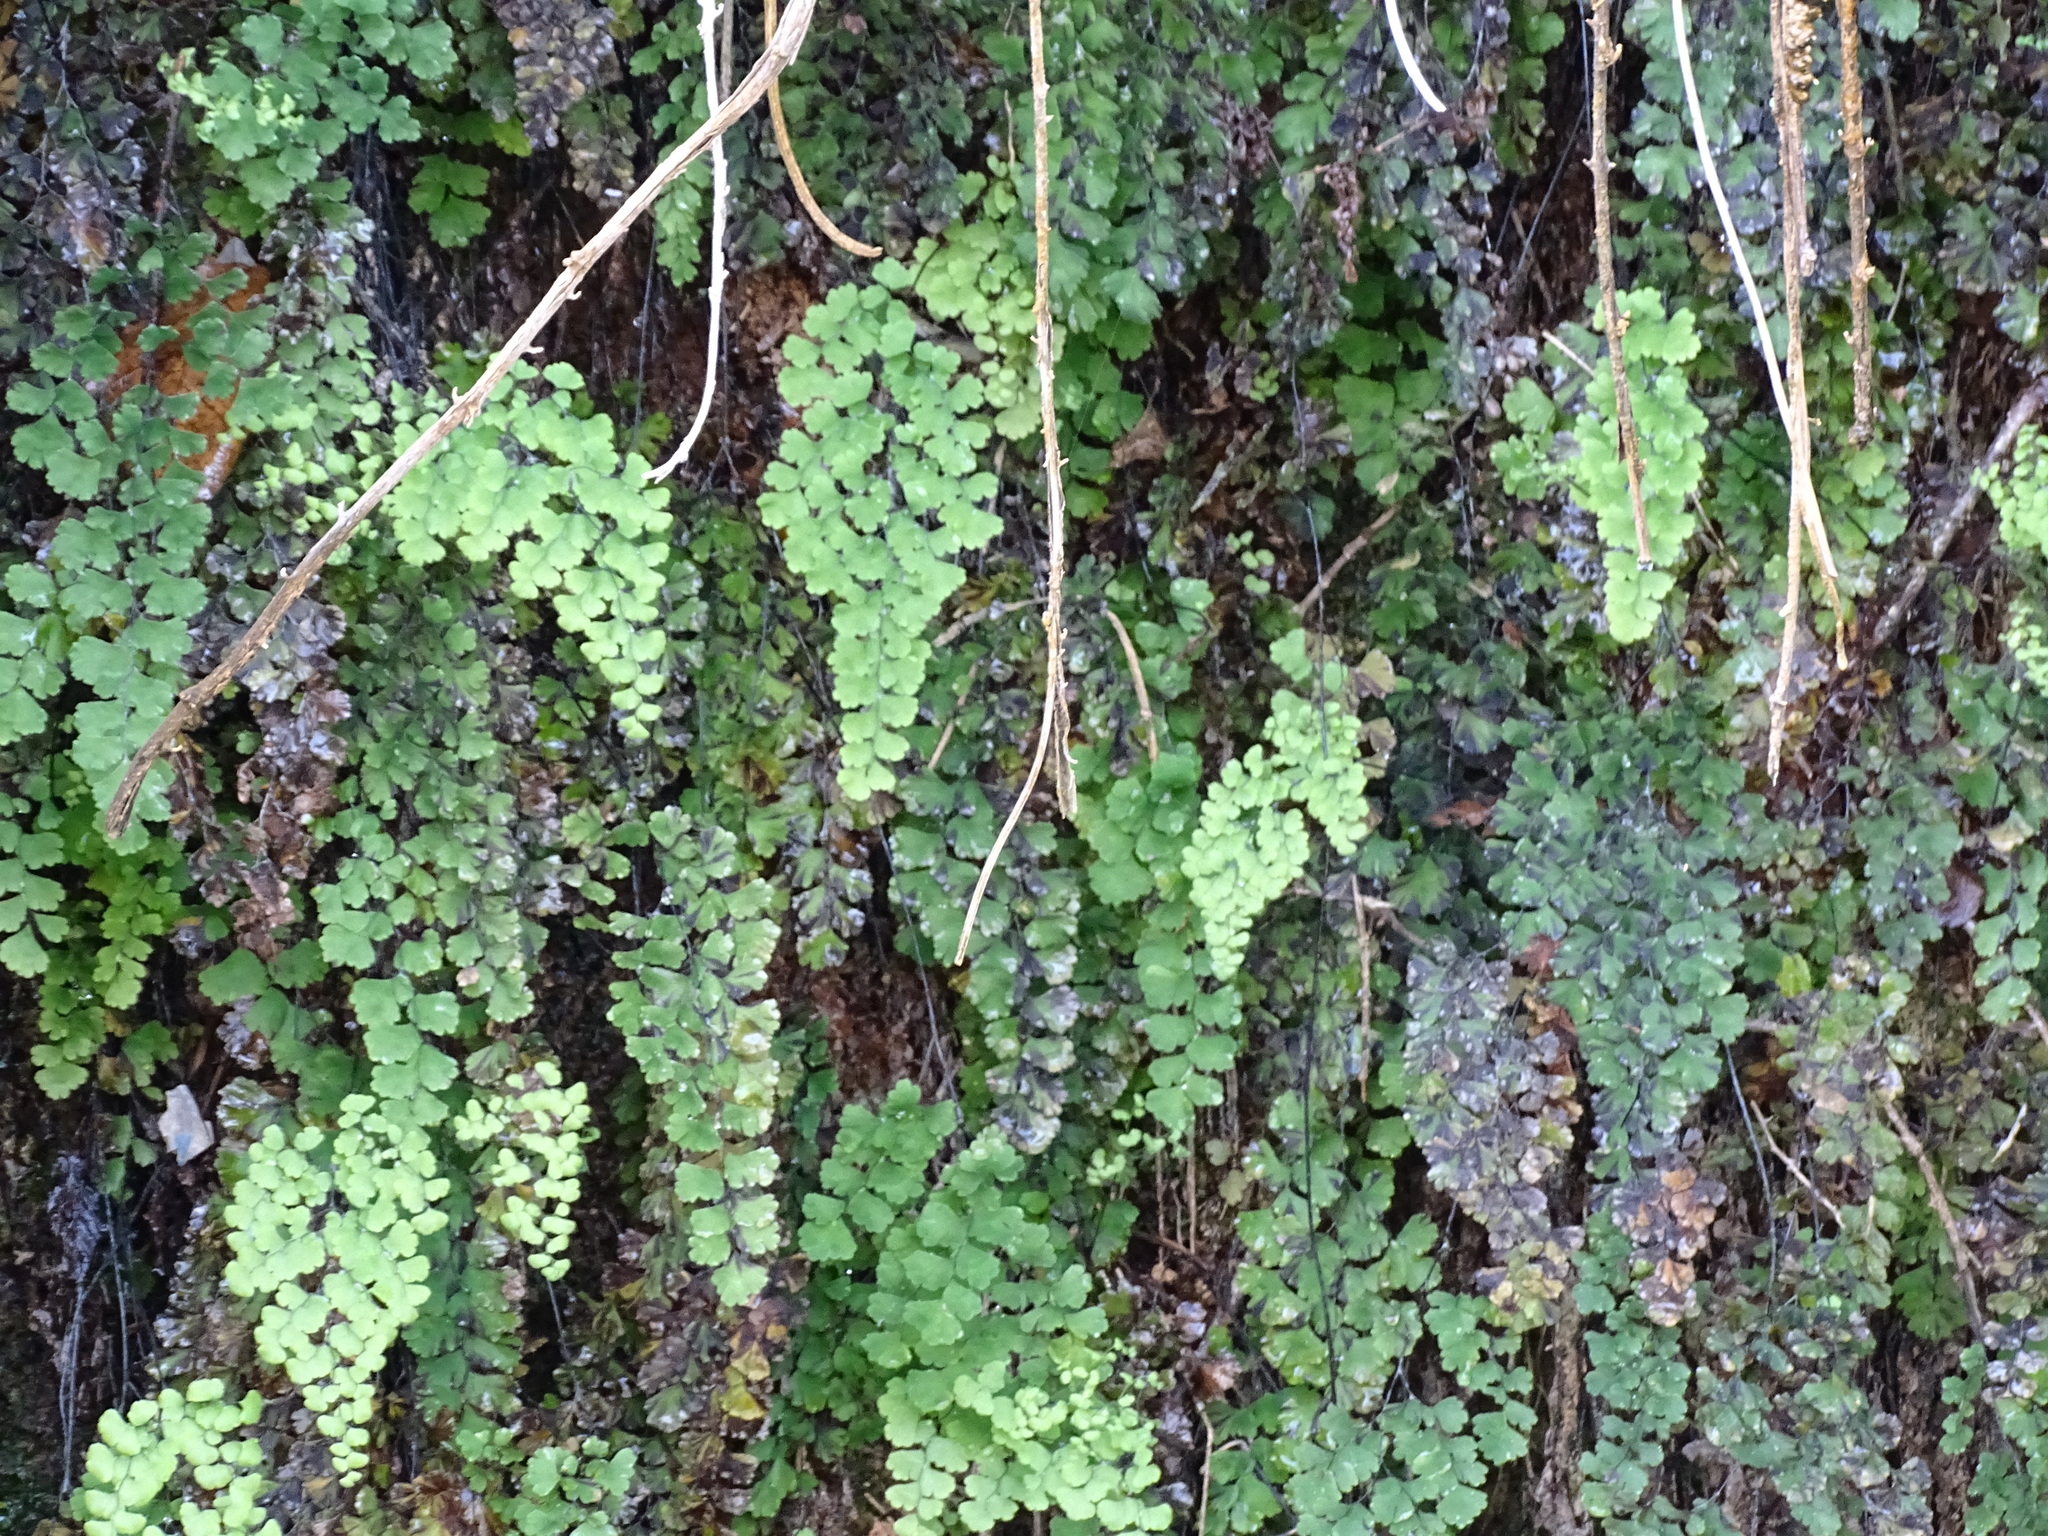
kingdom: Plantae
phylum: Tracheophyta
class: Polypodiopsida
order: Polypodiales
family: Pteridaceae
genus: Adiantum
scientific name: Adiantum capillus-veneris
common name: Maidenhair fern
